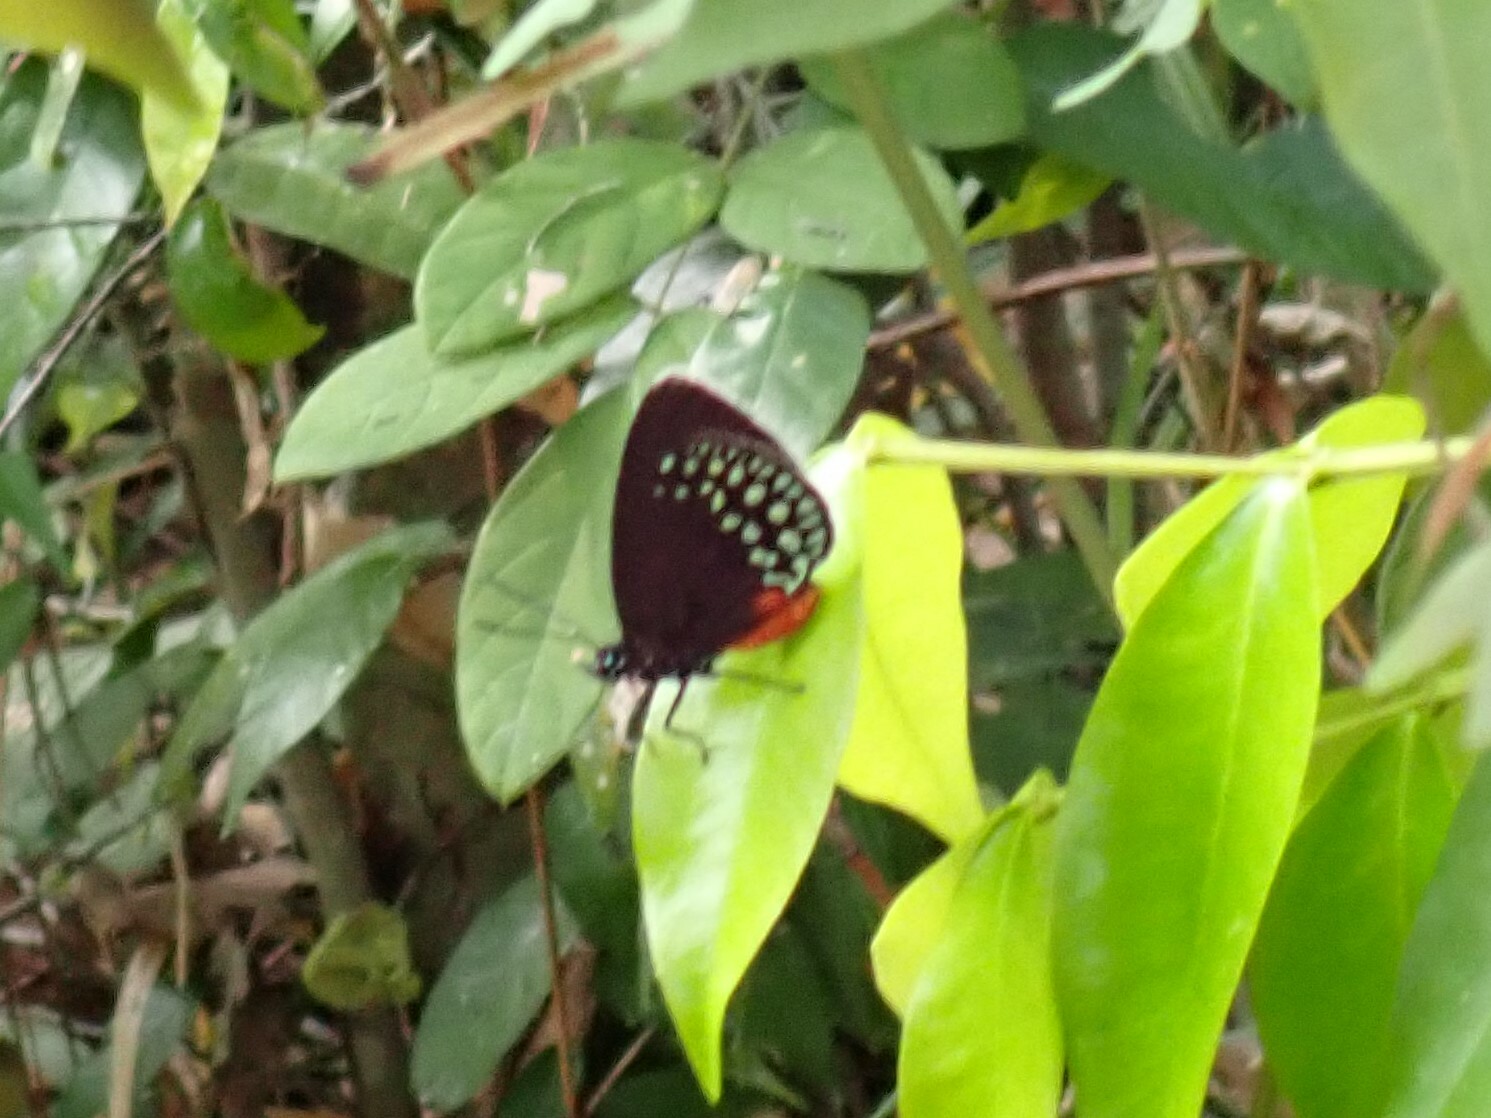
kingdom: Animalia
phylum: Arthropoda
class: Insecta
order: Lepidoptera
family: Lycaenidae
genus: Eumaeus
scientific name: Eumaeus toxea
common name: Mexican cycadian
